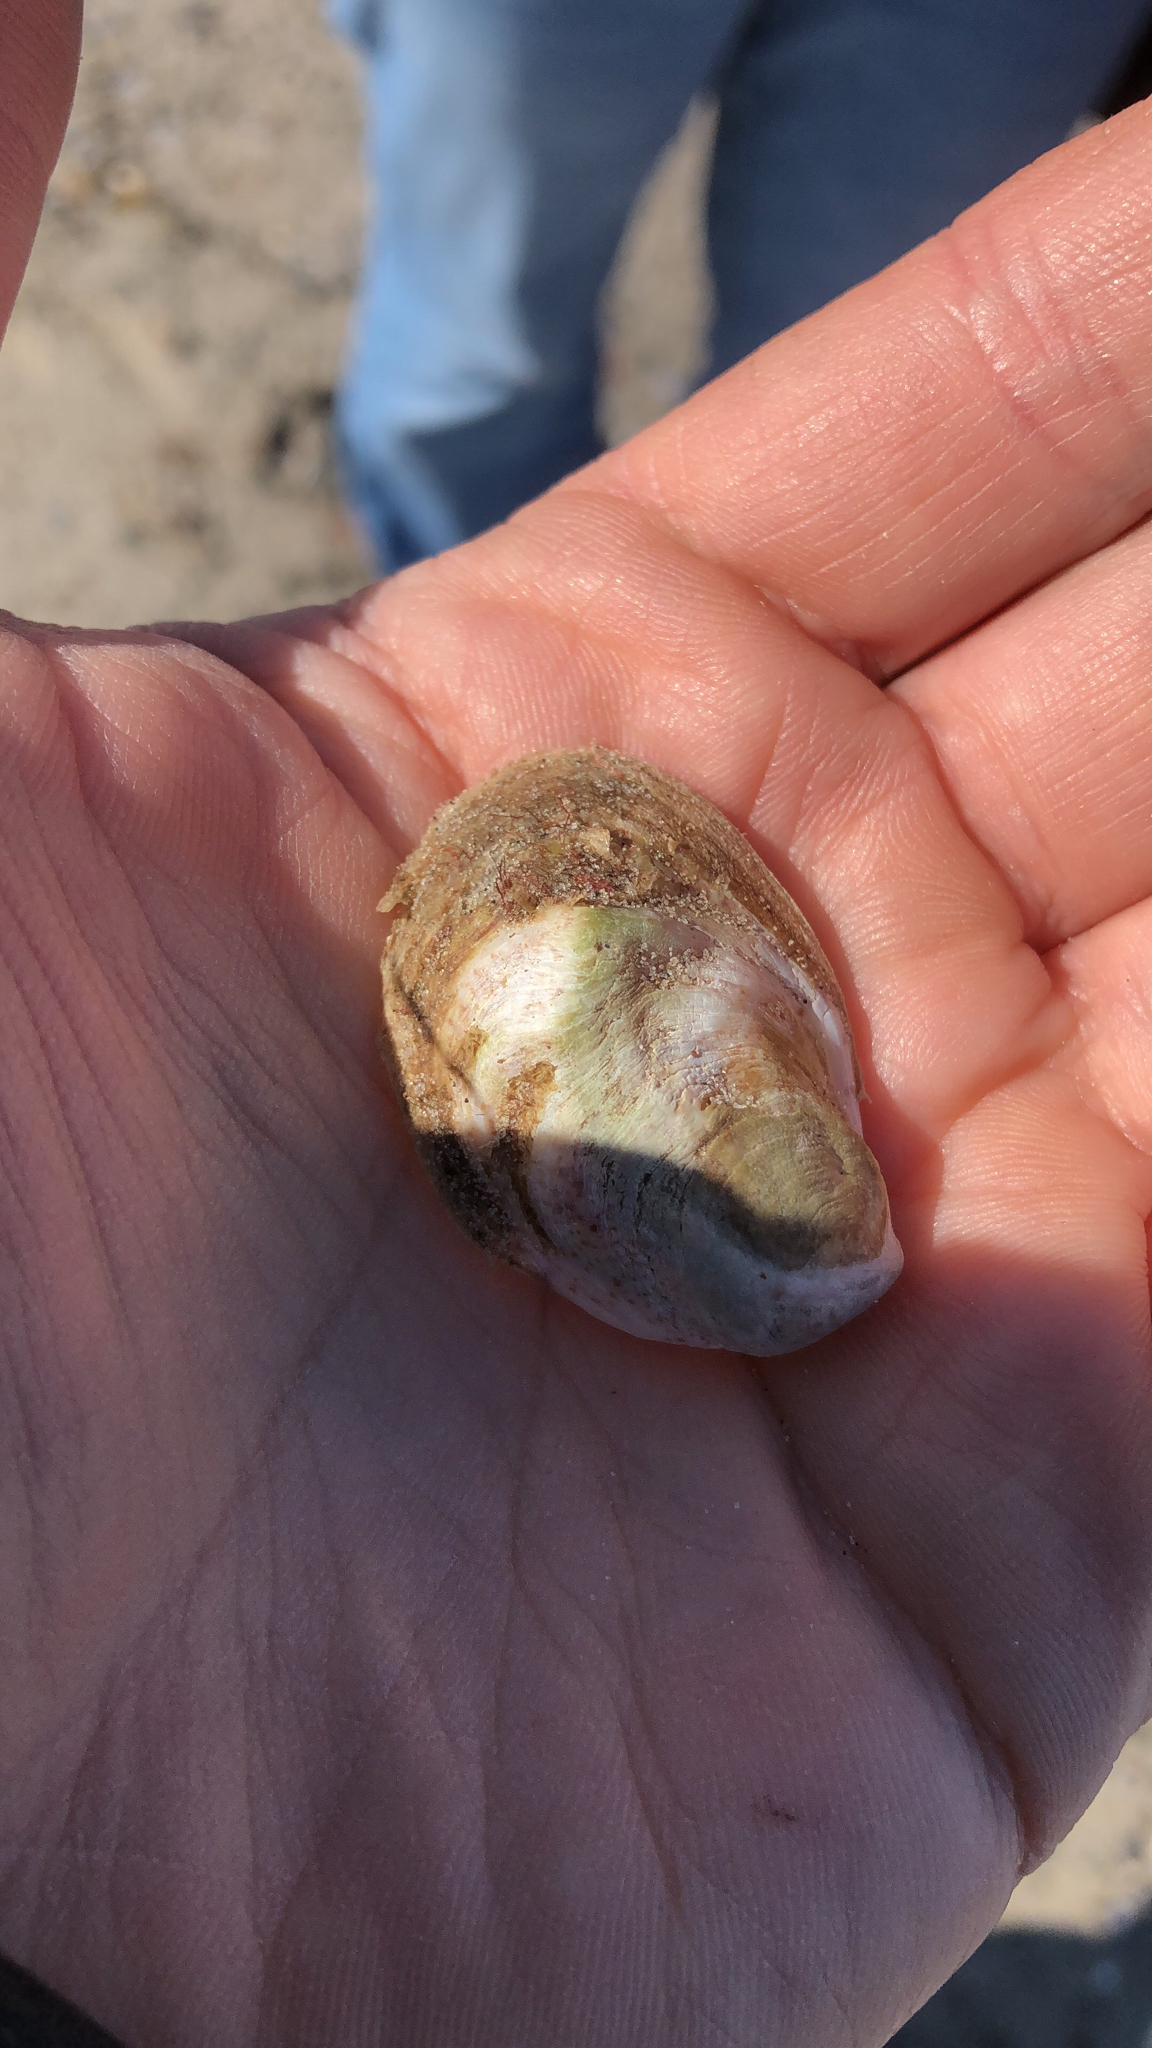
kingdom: Animalia
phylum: Mollusca
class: Gastropoda
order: Littorinimorpha
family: Calyptraeidae
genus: Crepidula
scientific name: Crepidula fornicata
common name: Slipper limpet
